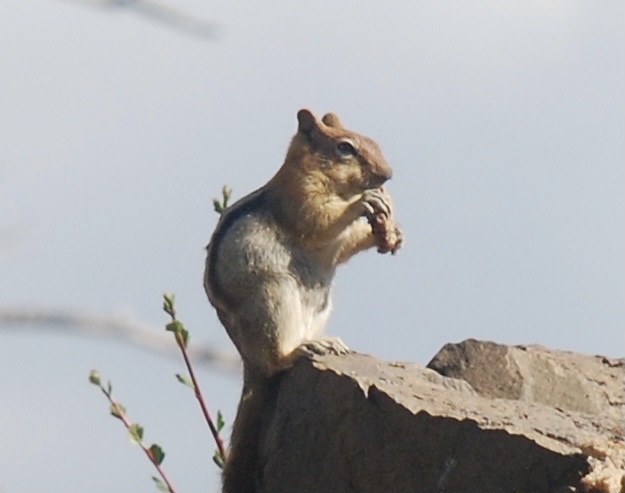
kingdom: Animalia
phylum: Chordata
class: Mammalia
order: Rodentia
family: Sciuridae
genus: Callospermophilus
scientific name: Callospermophilus lateralis
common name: Golden-mantled ground squirrel
